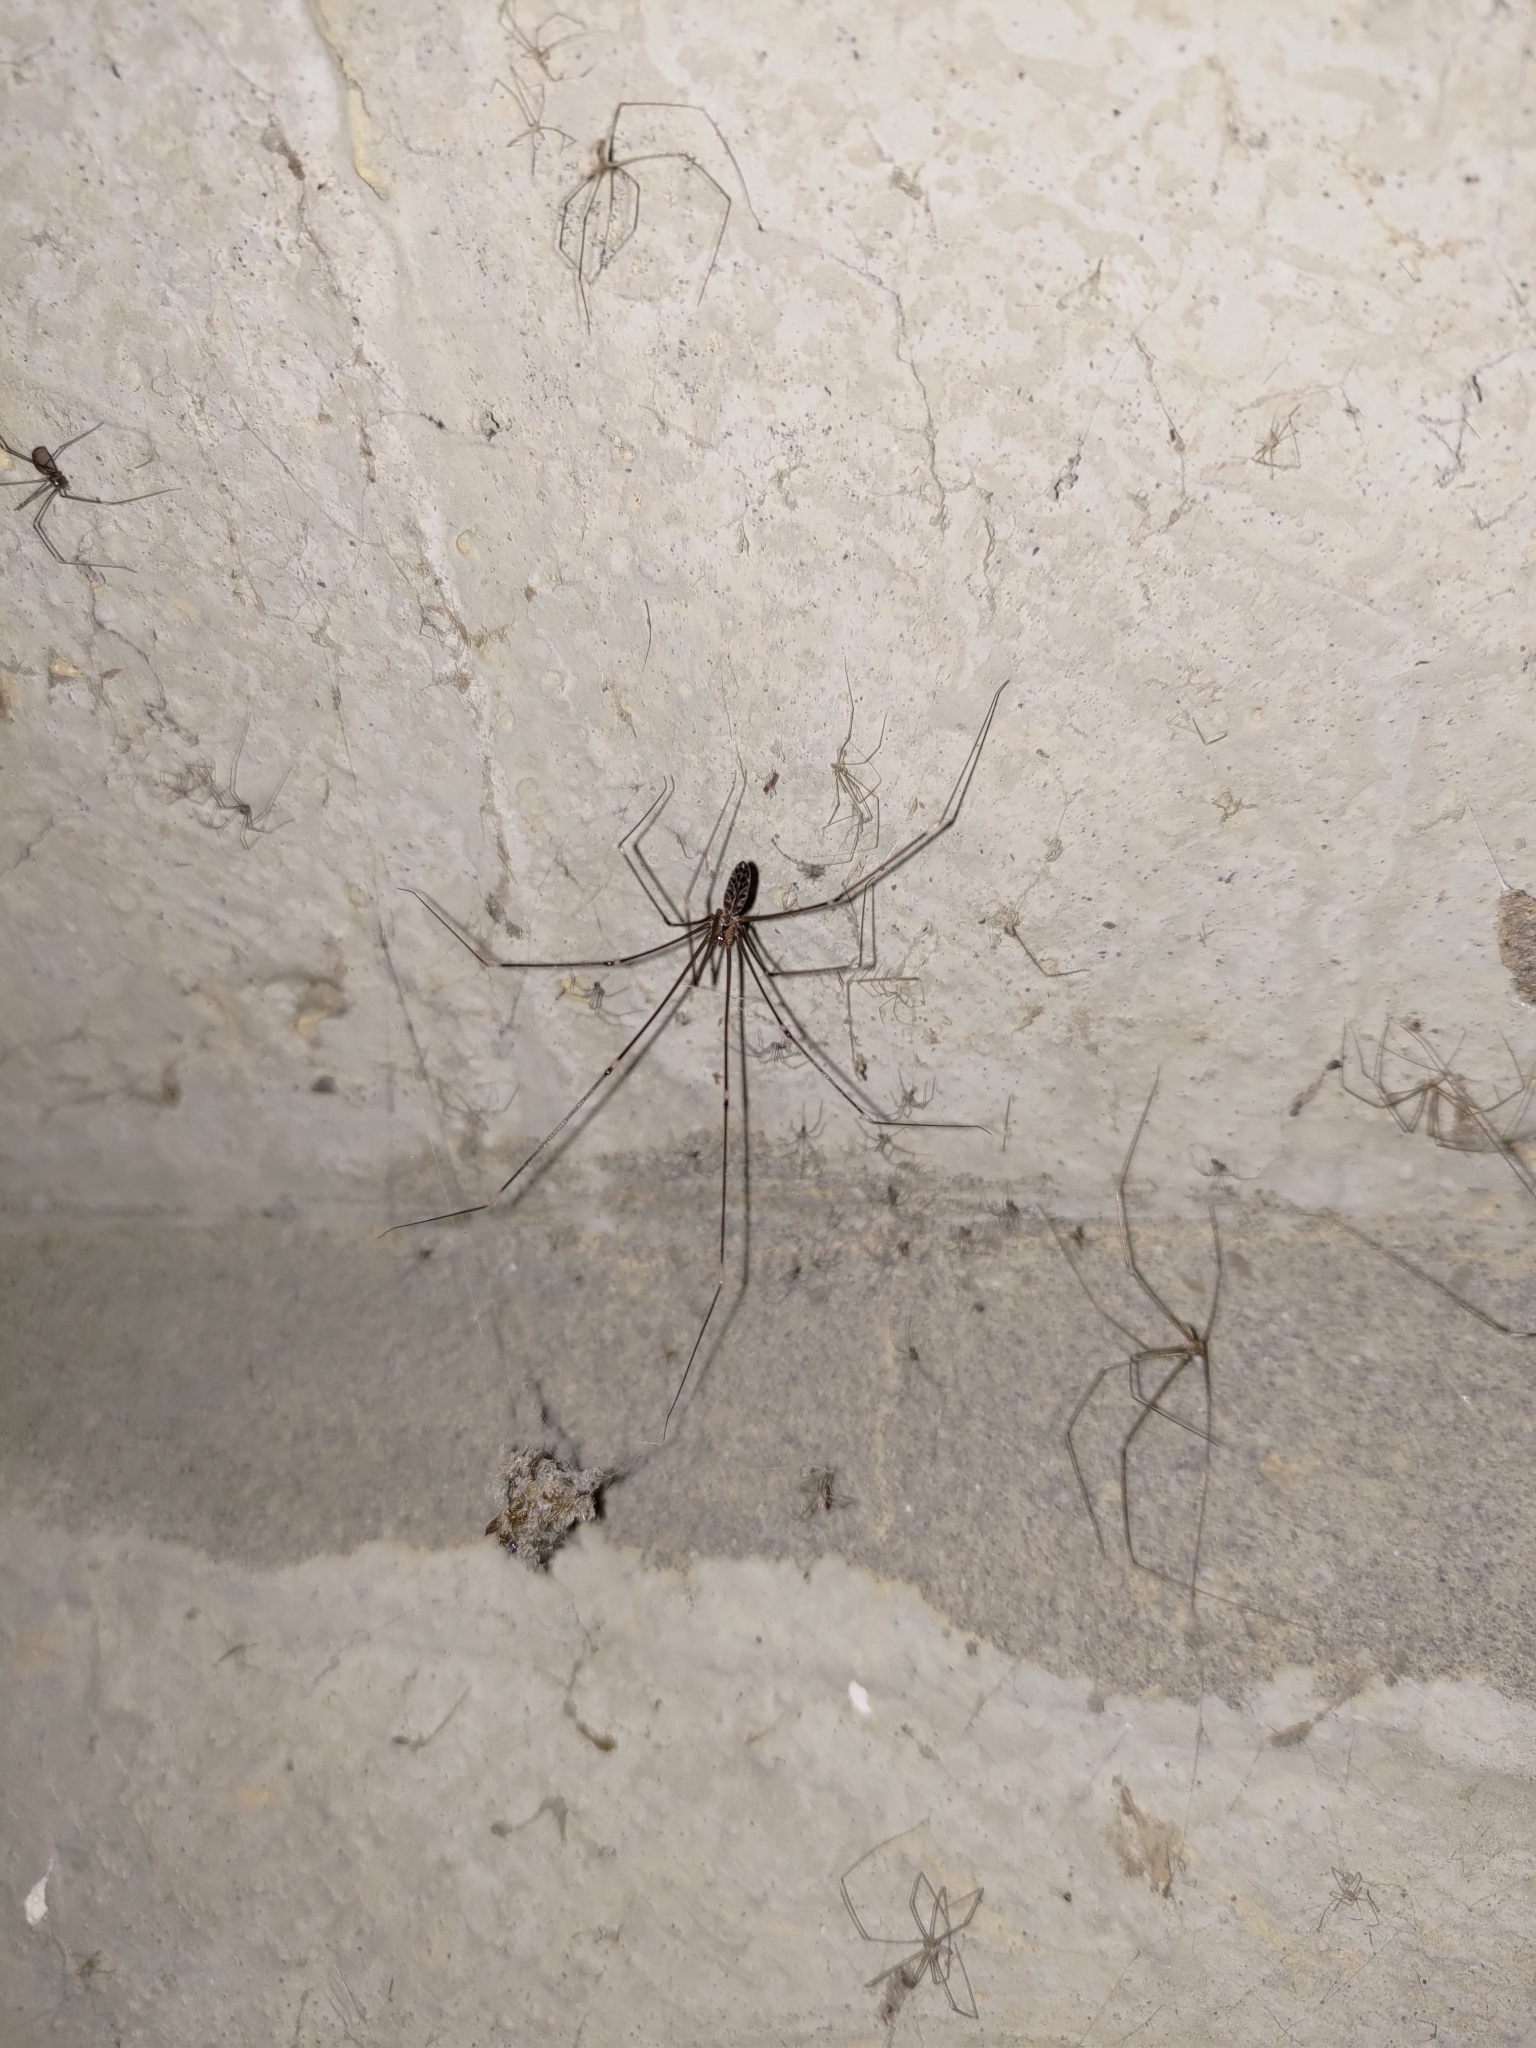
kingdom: Animalia
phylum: Arthropoda
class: Arachnida
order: Araneae
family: Pholcidae
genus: Smeringopus
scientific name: Smeringopus pallidus
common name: Cellar spider
